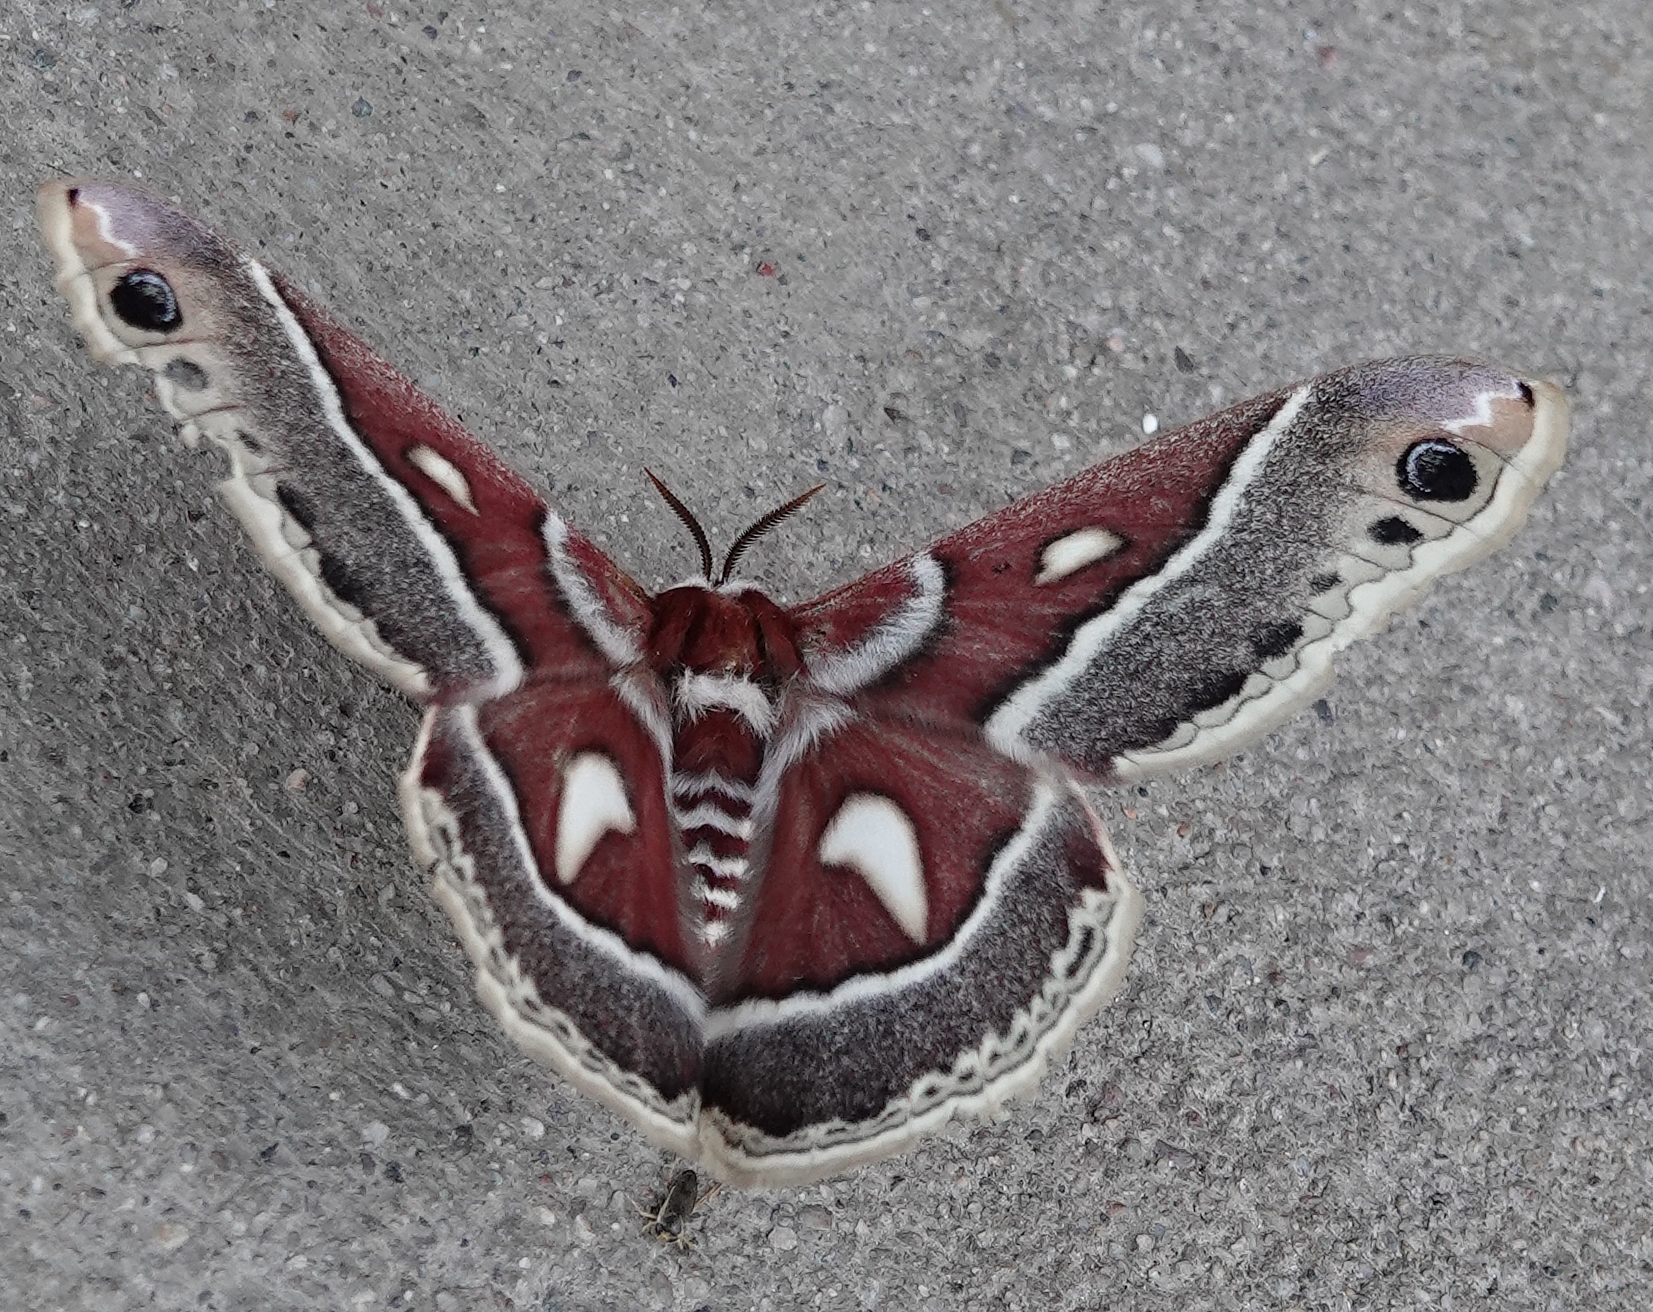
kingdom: Animalia
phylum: Arthropoda
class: Insecta
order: Lepidoptera
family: Saturniidae
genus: Hyalophora
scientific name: Hyalophora gloveri
